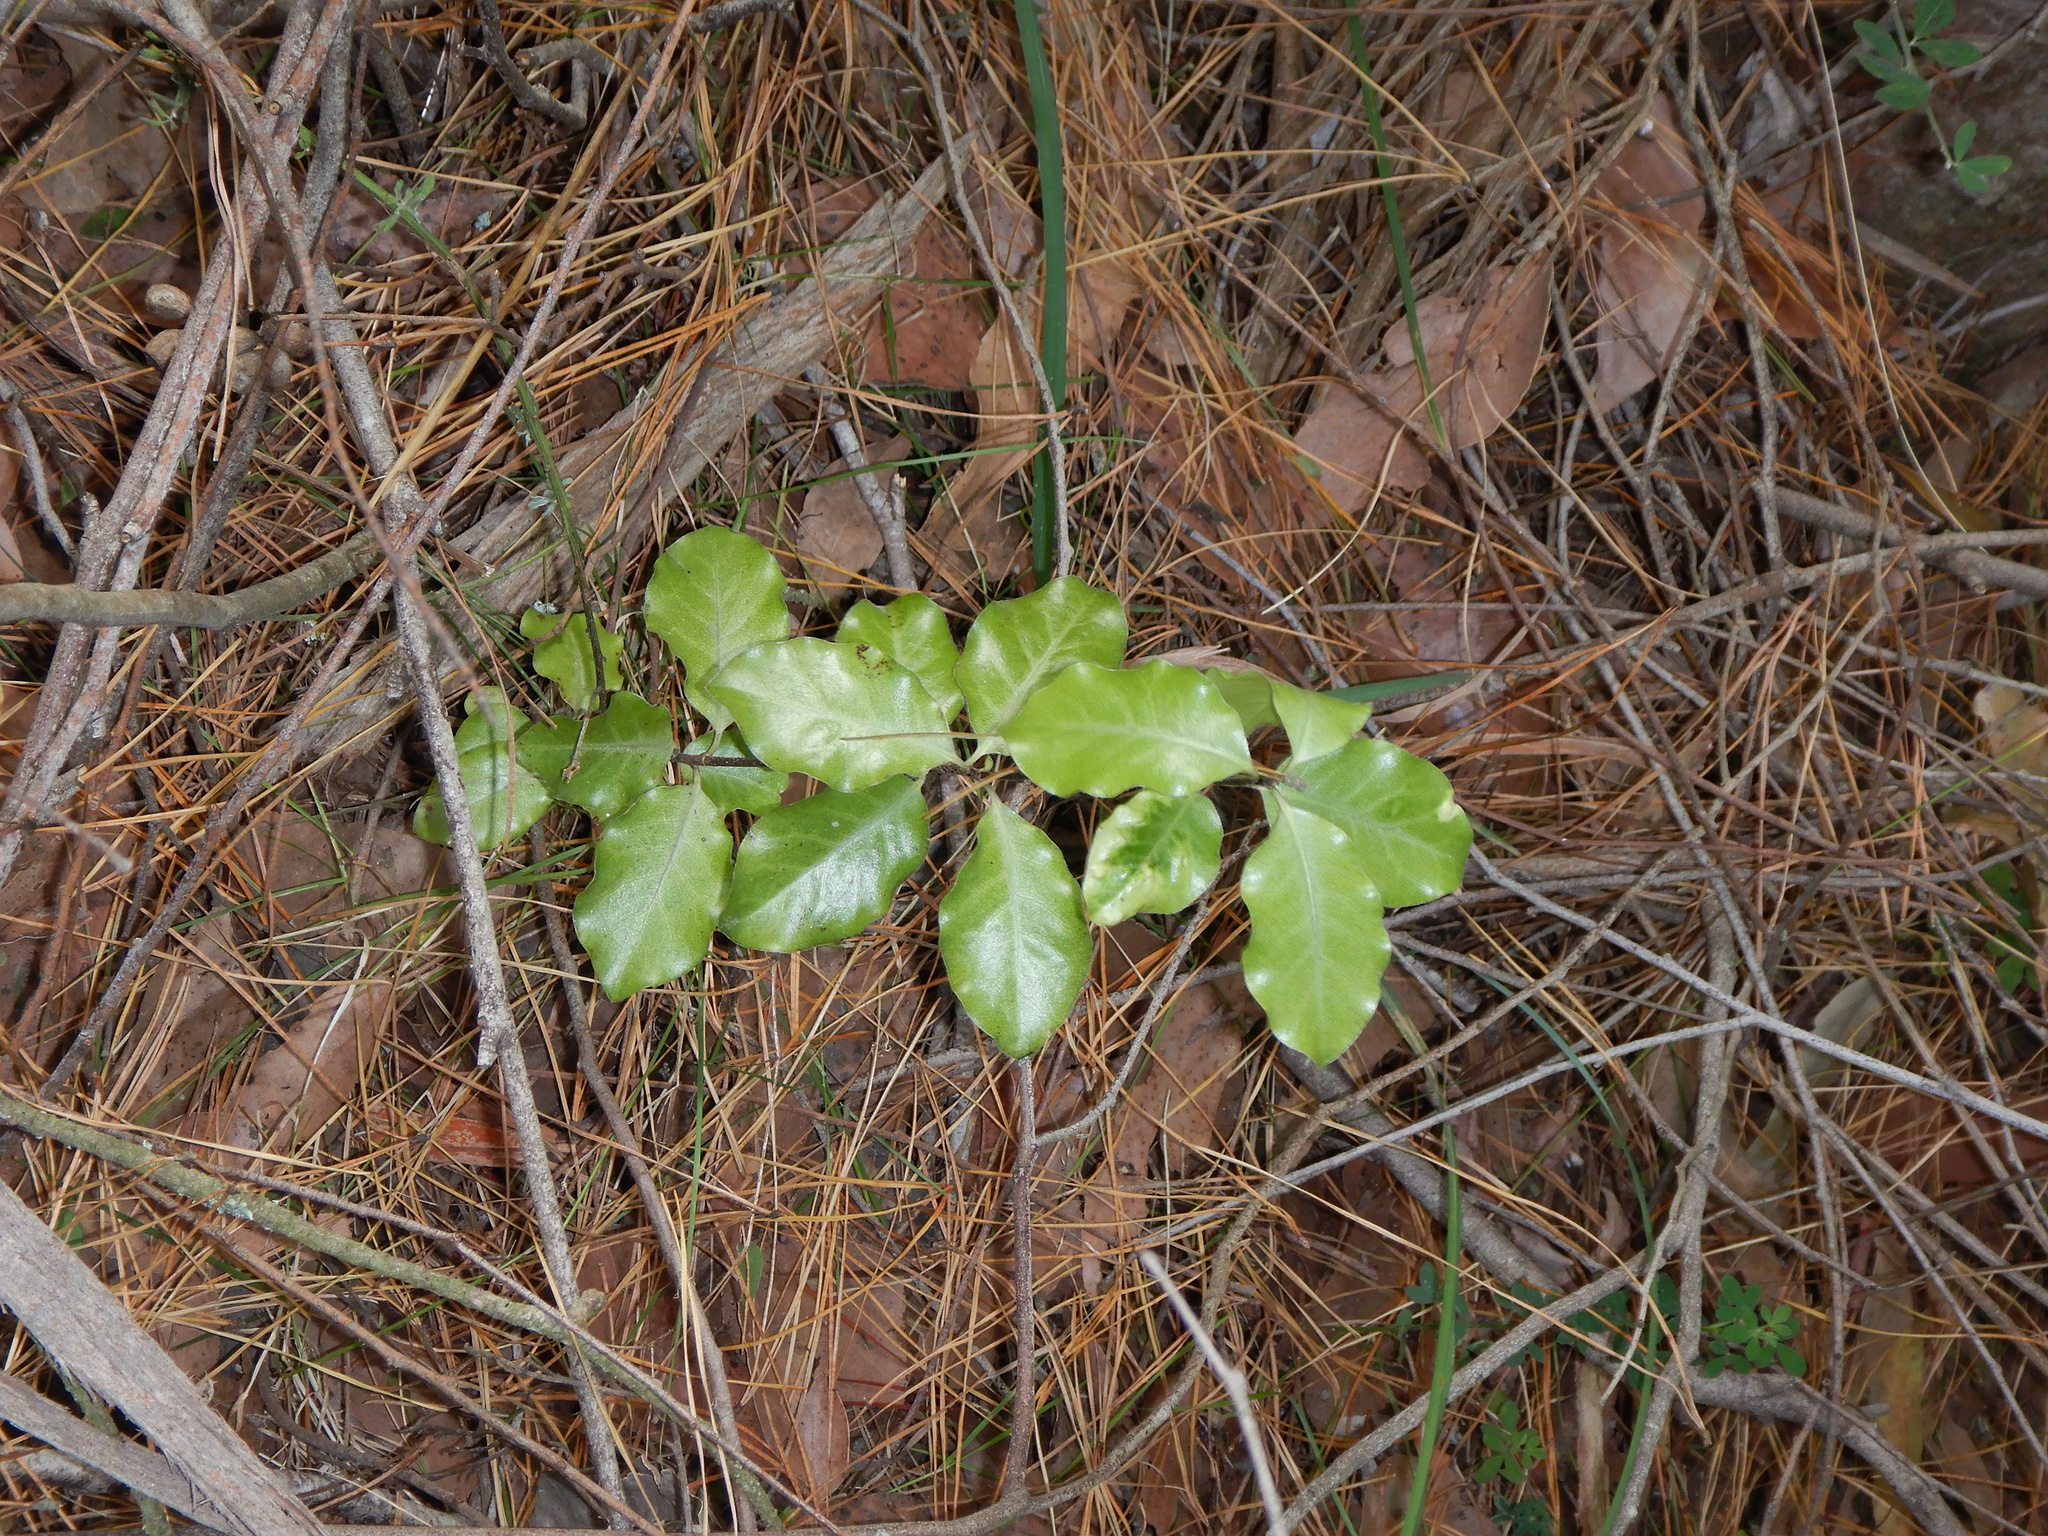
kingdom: Plantae
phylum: Tracheophyta
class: Magnoliopsida
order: Apiales
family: Pittosporaceae
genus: Pittosporum
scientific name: Pittosporum tenuifolium
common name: Kohuhu
